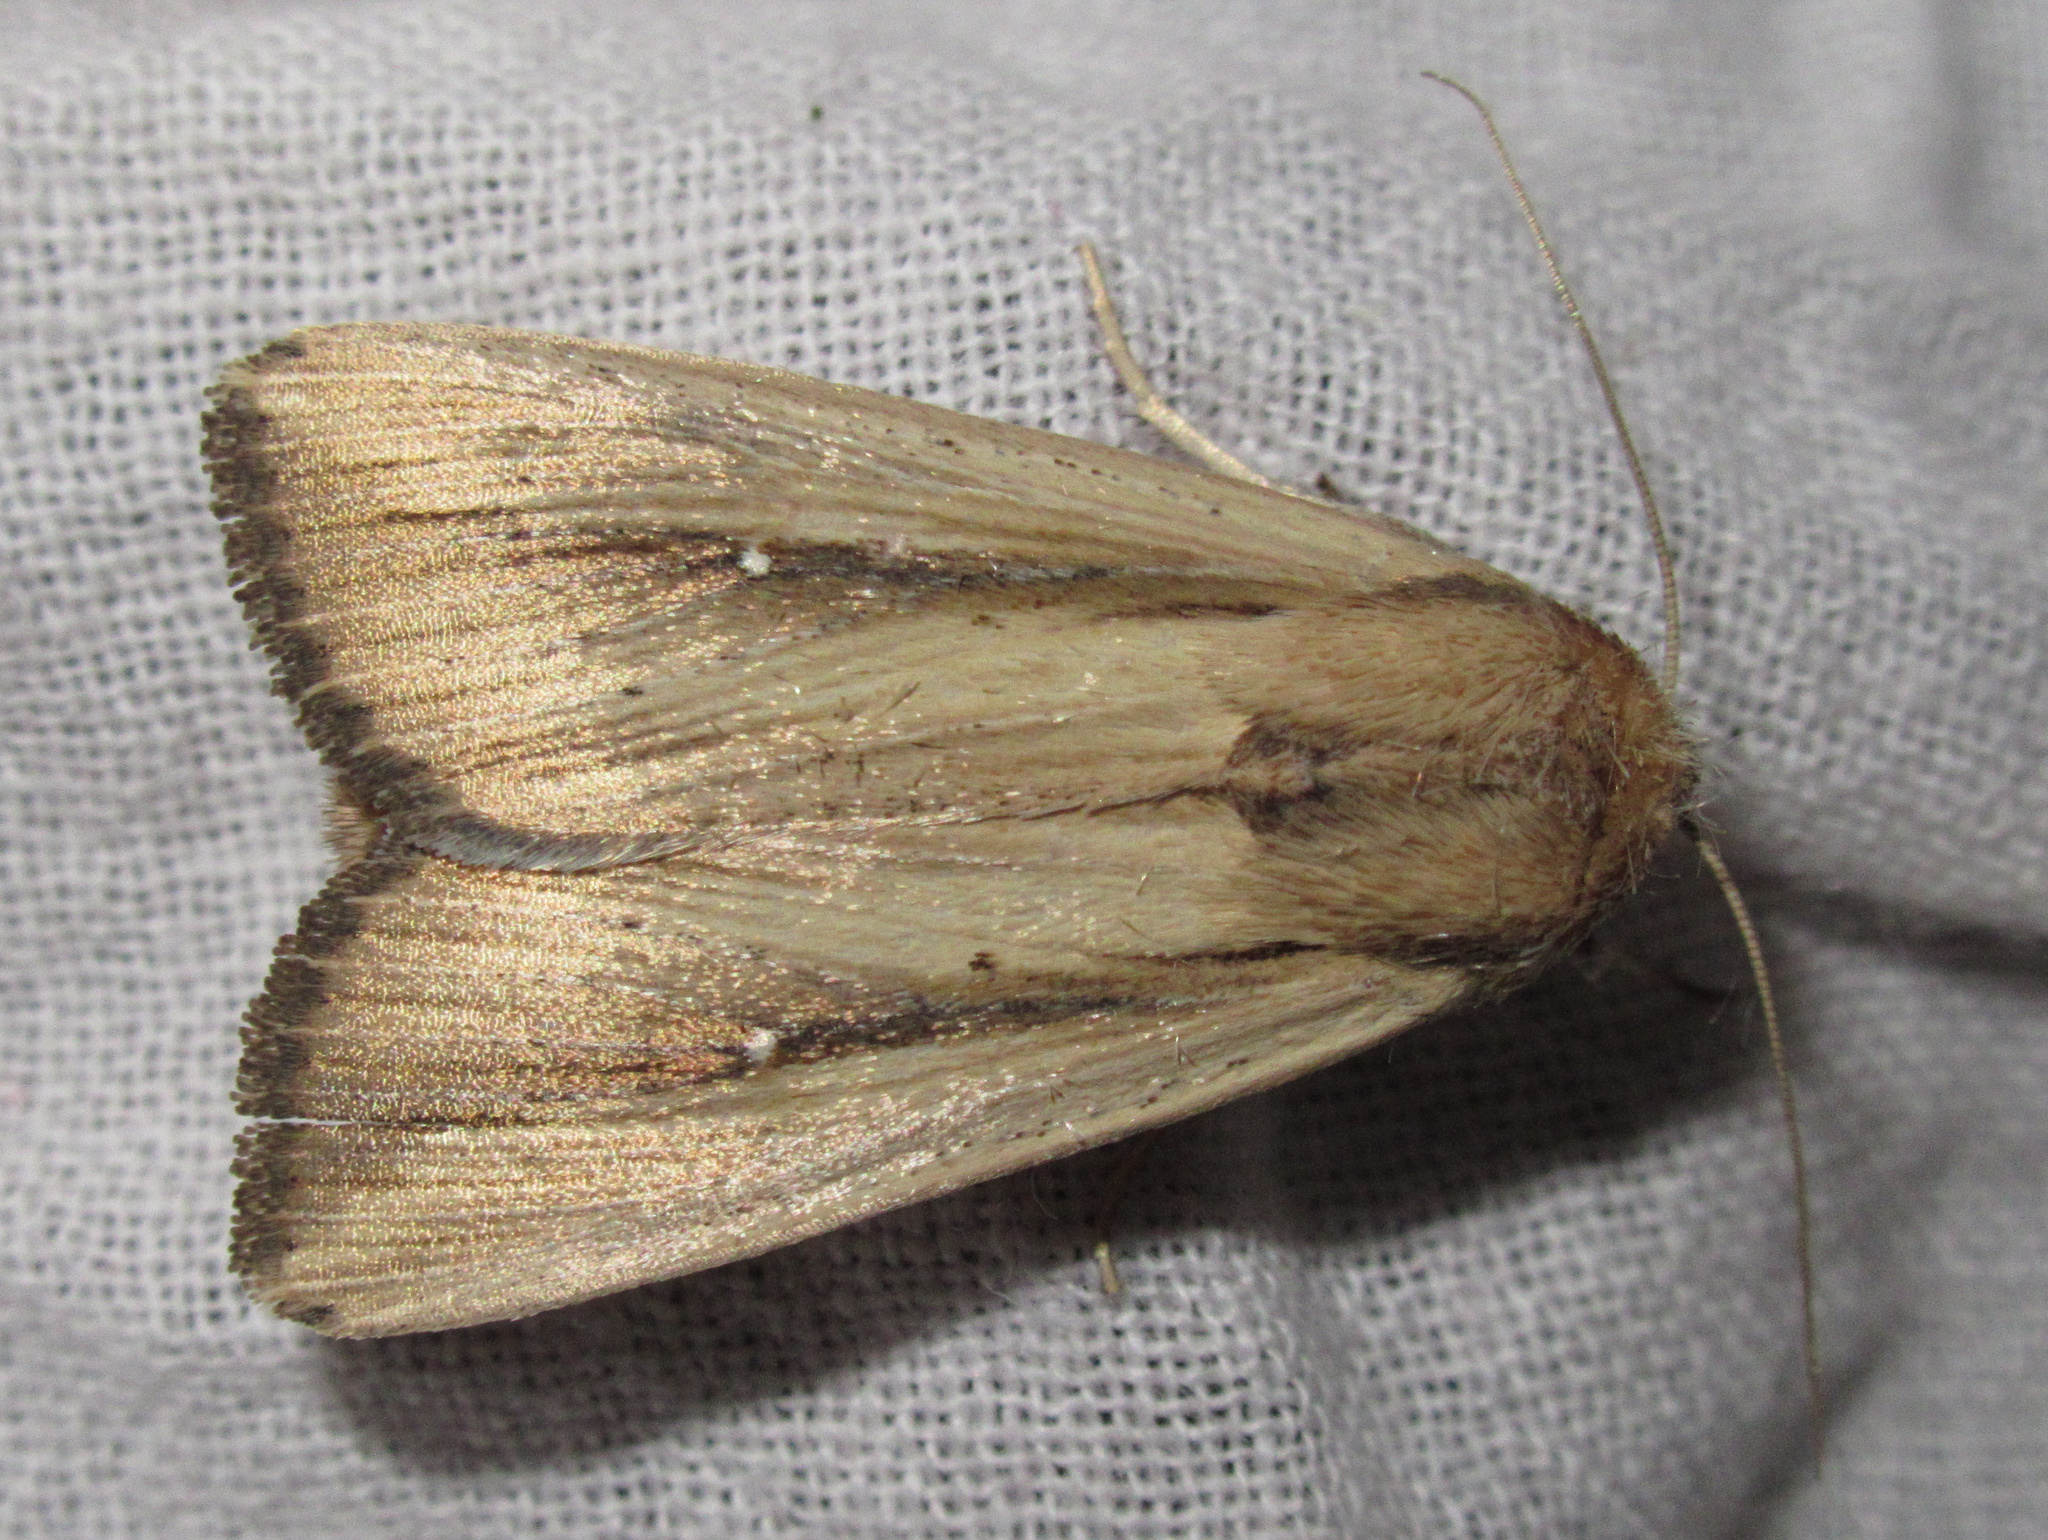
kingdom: Animalia
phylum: Arthropoda
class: Insecta
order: Lepidoptera
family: Noctuidae
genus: Leucania
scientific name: Leucania stenographa
